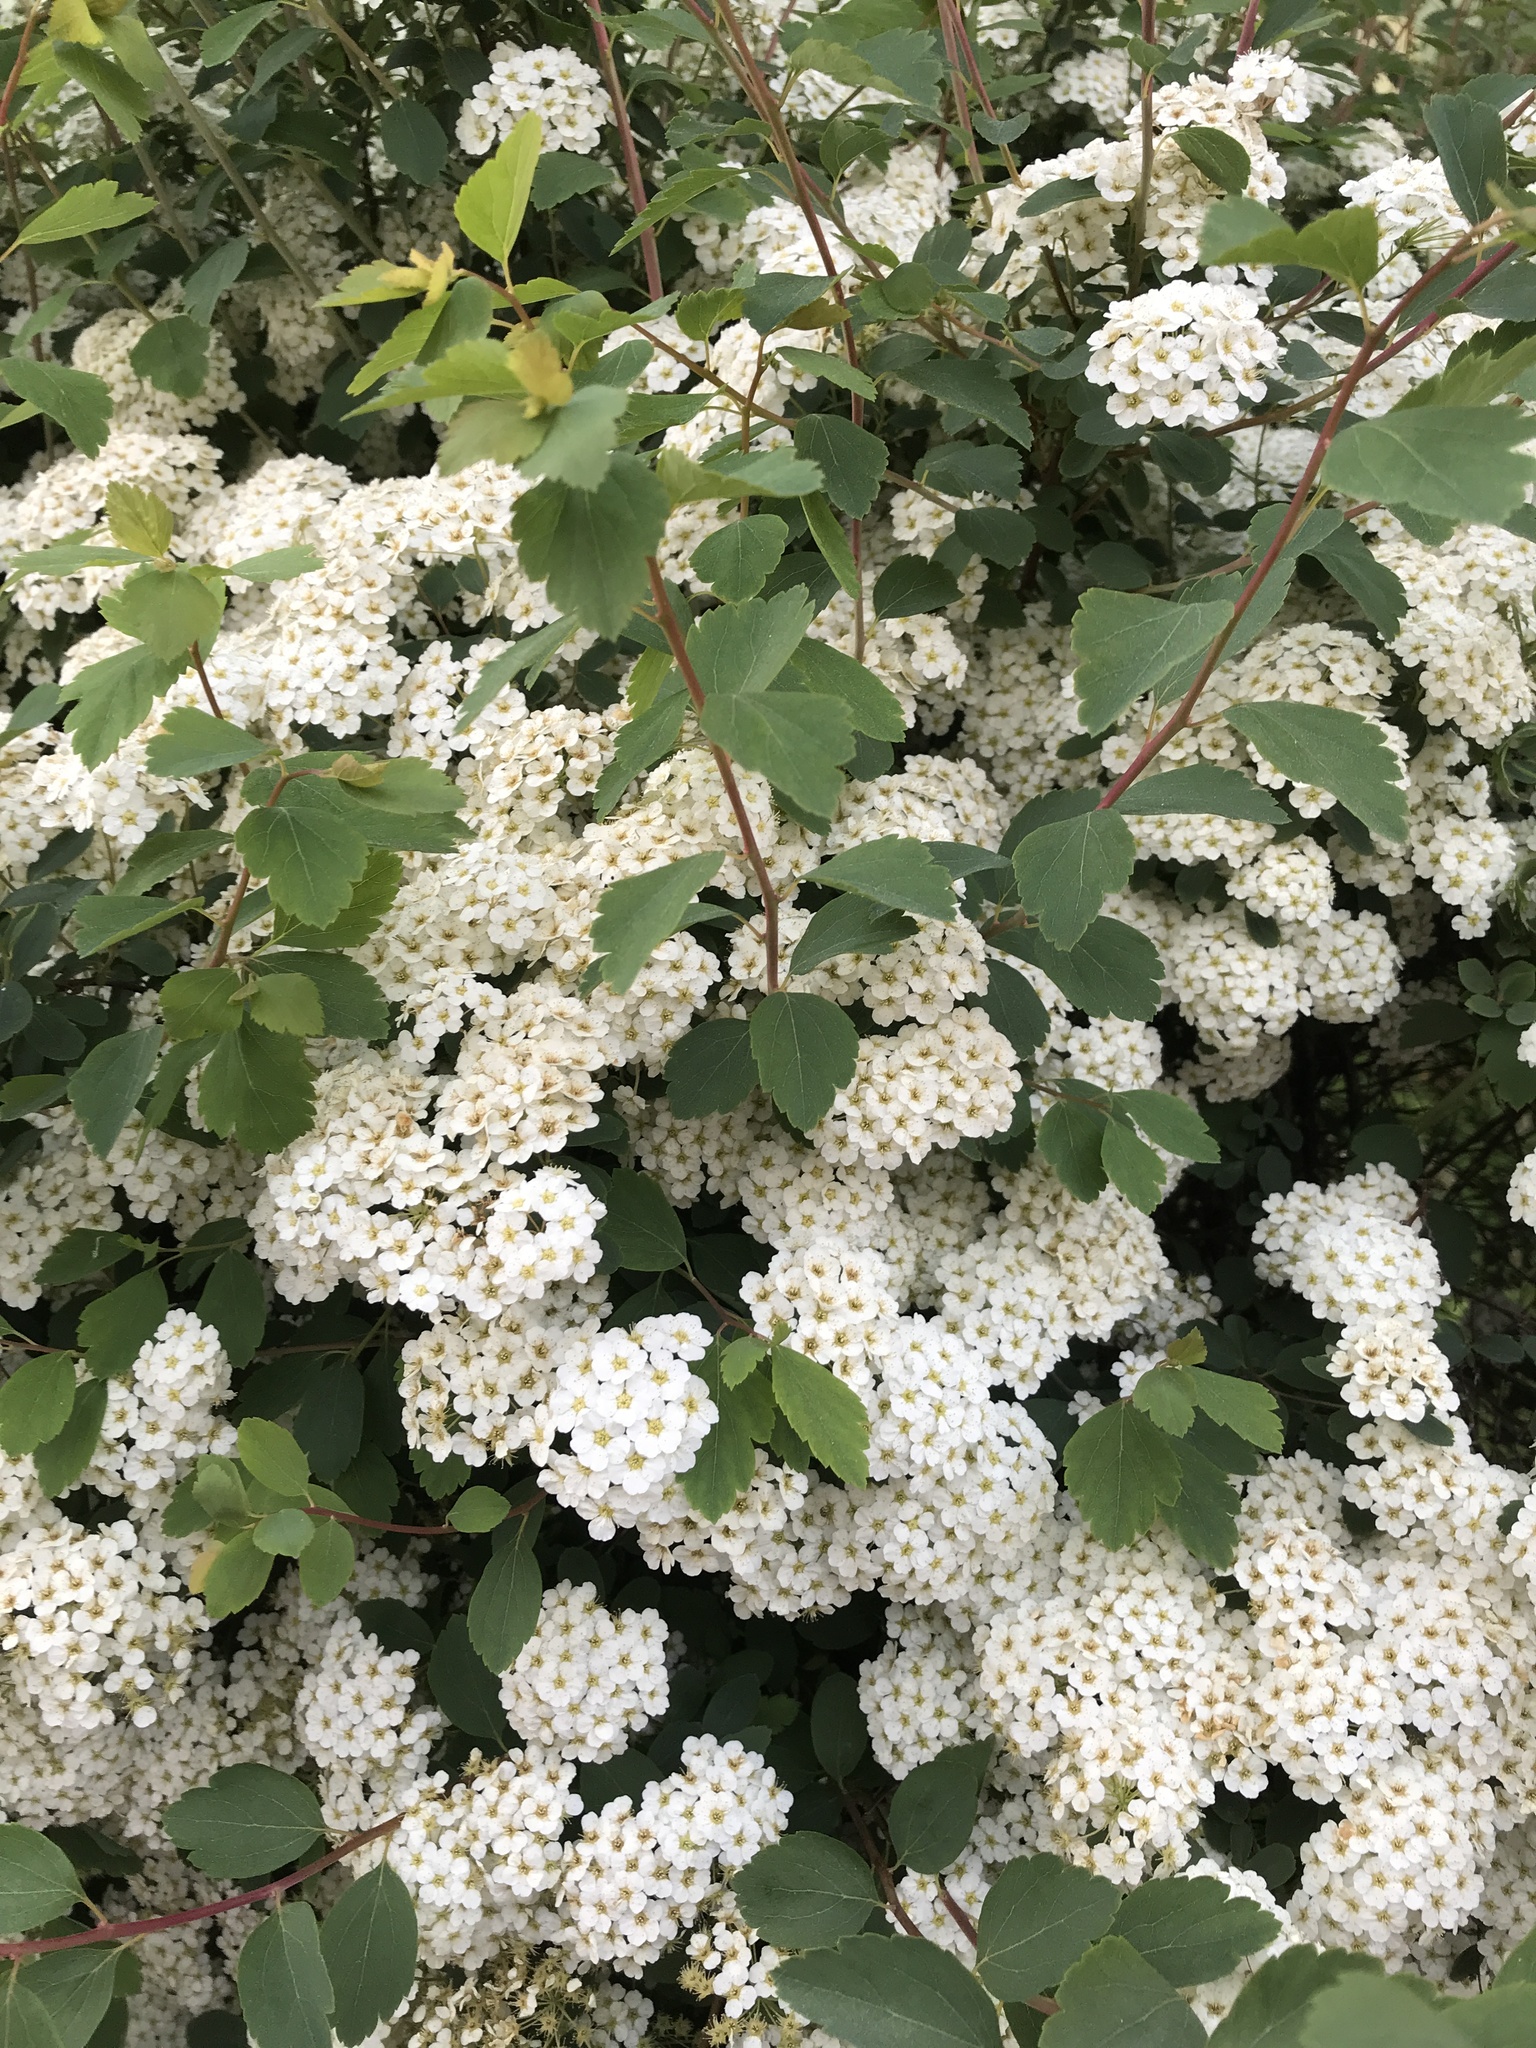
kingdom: Plantae
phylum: Tracheophyta
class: Magnoliopsida
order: Rosales
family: Rosaceae
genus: Spiraea
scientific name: Spiraea vanhouttei
